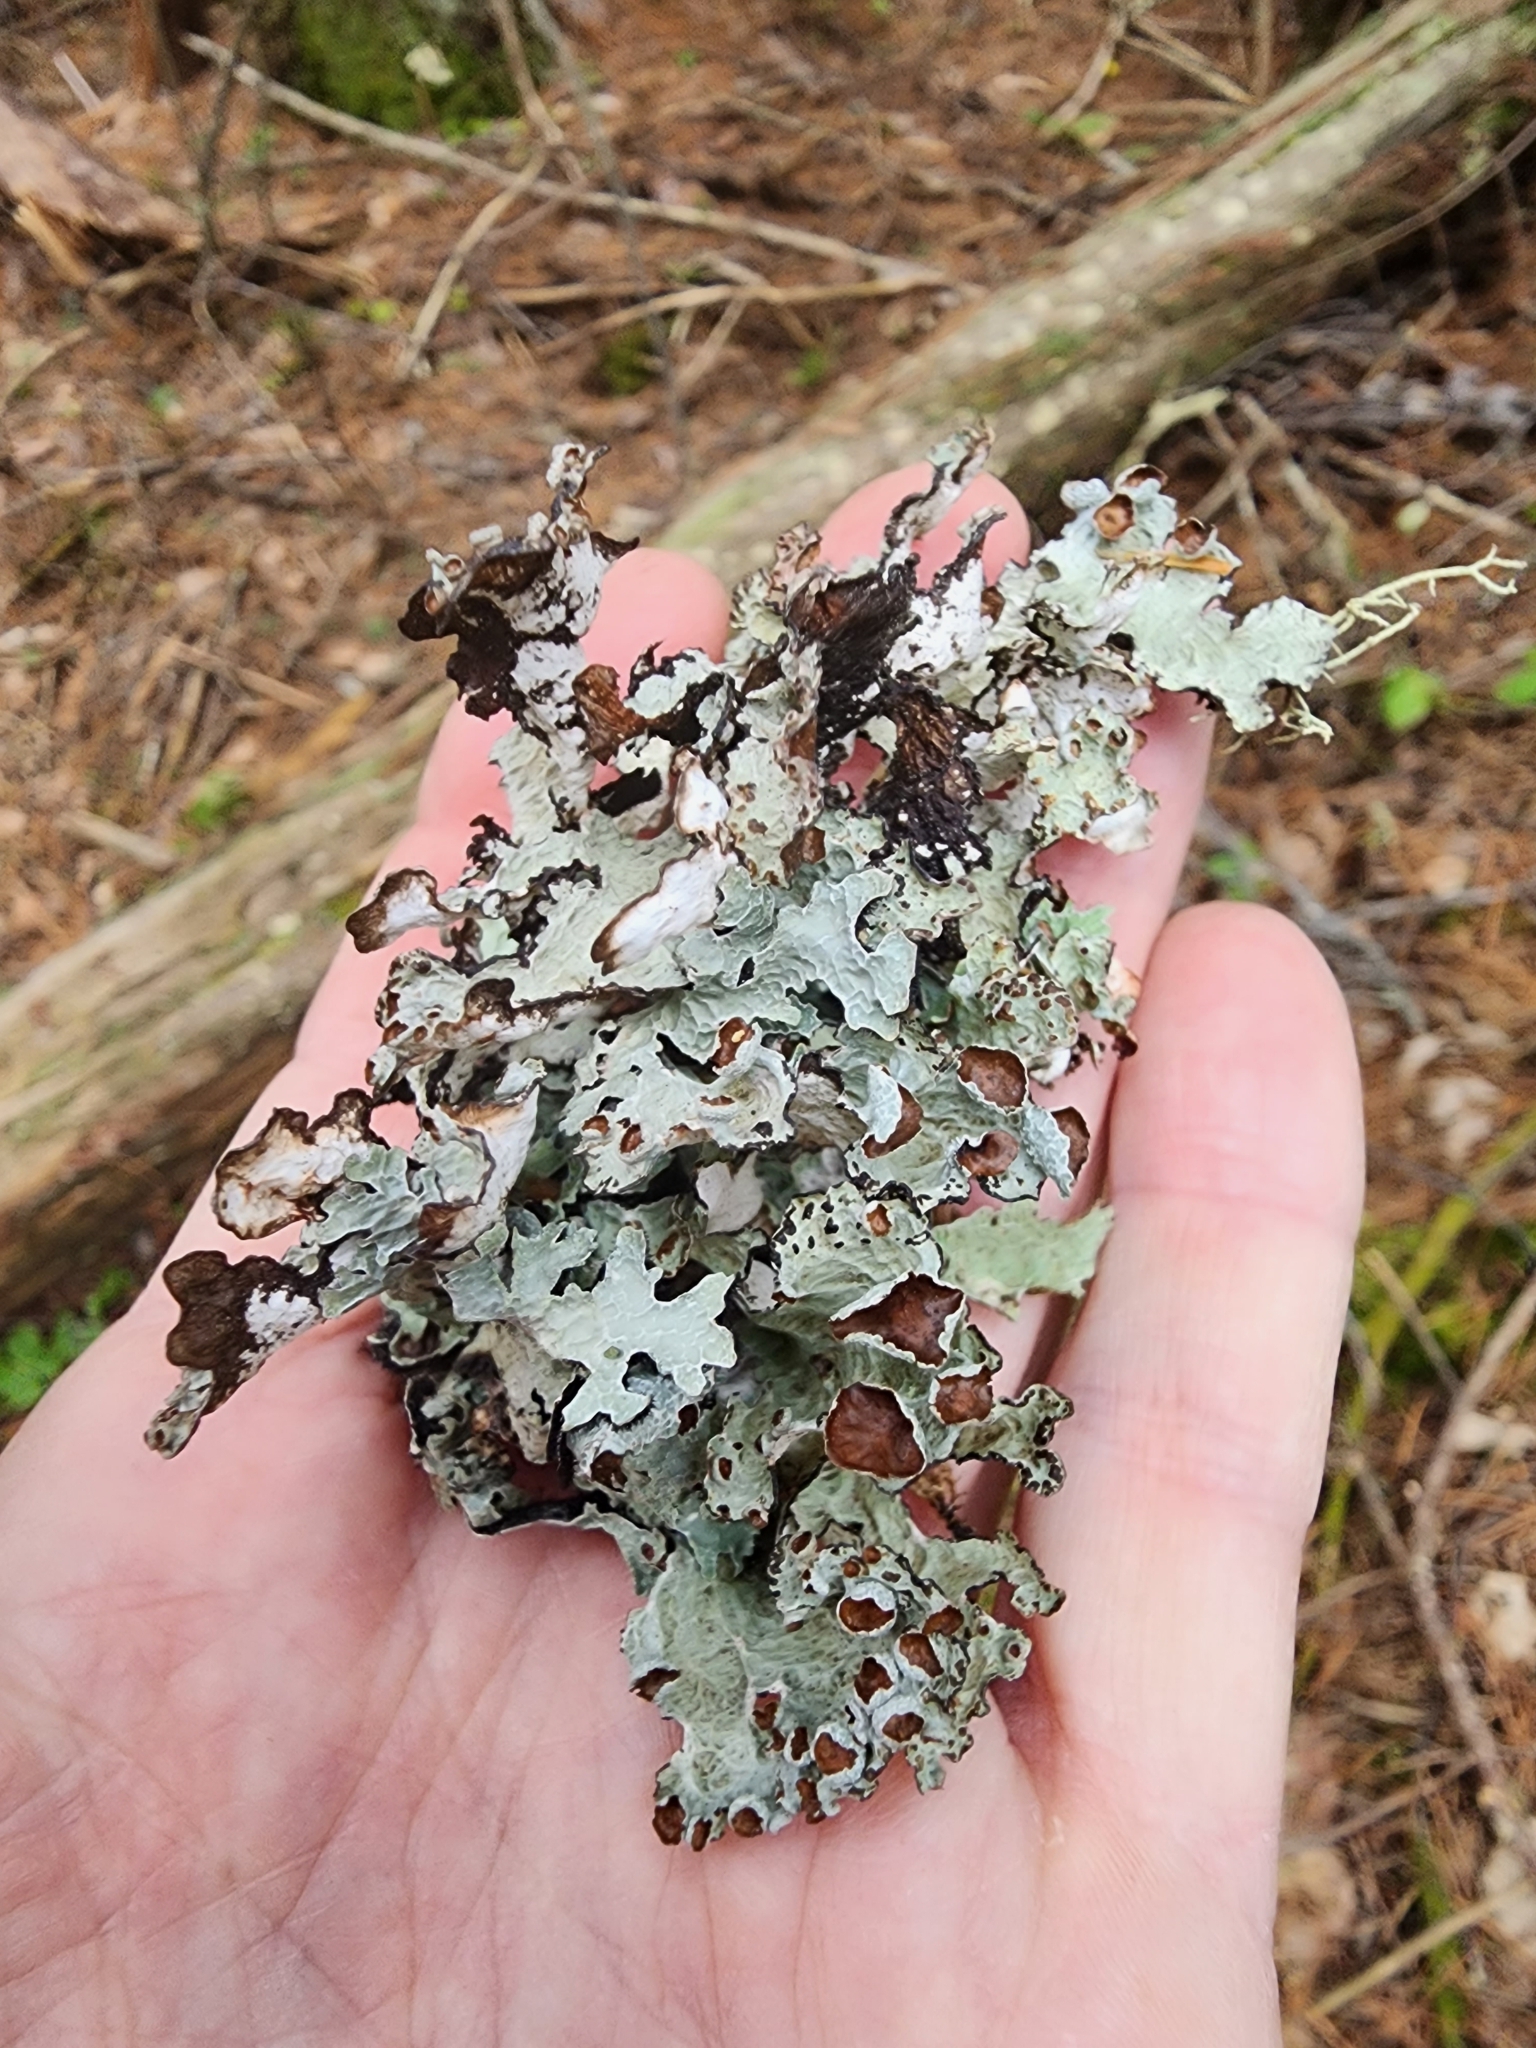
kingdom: Fungi
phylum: Ascomycota
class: Lecanoromycetes
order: Lecanorales
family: Parmeliaceae
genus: Platismatia
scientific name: Platismatia tuckermanii
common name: Crumpled rag lichen
